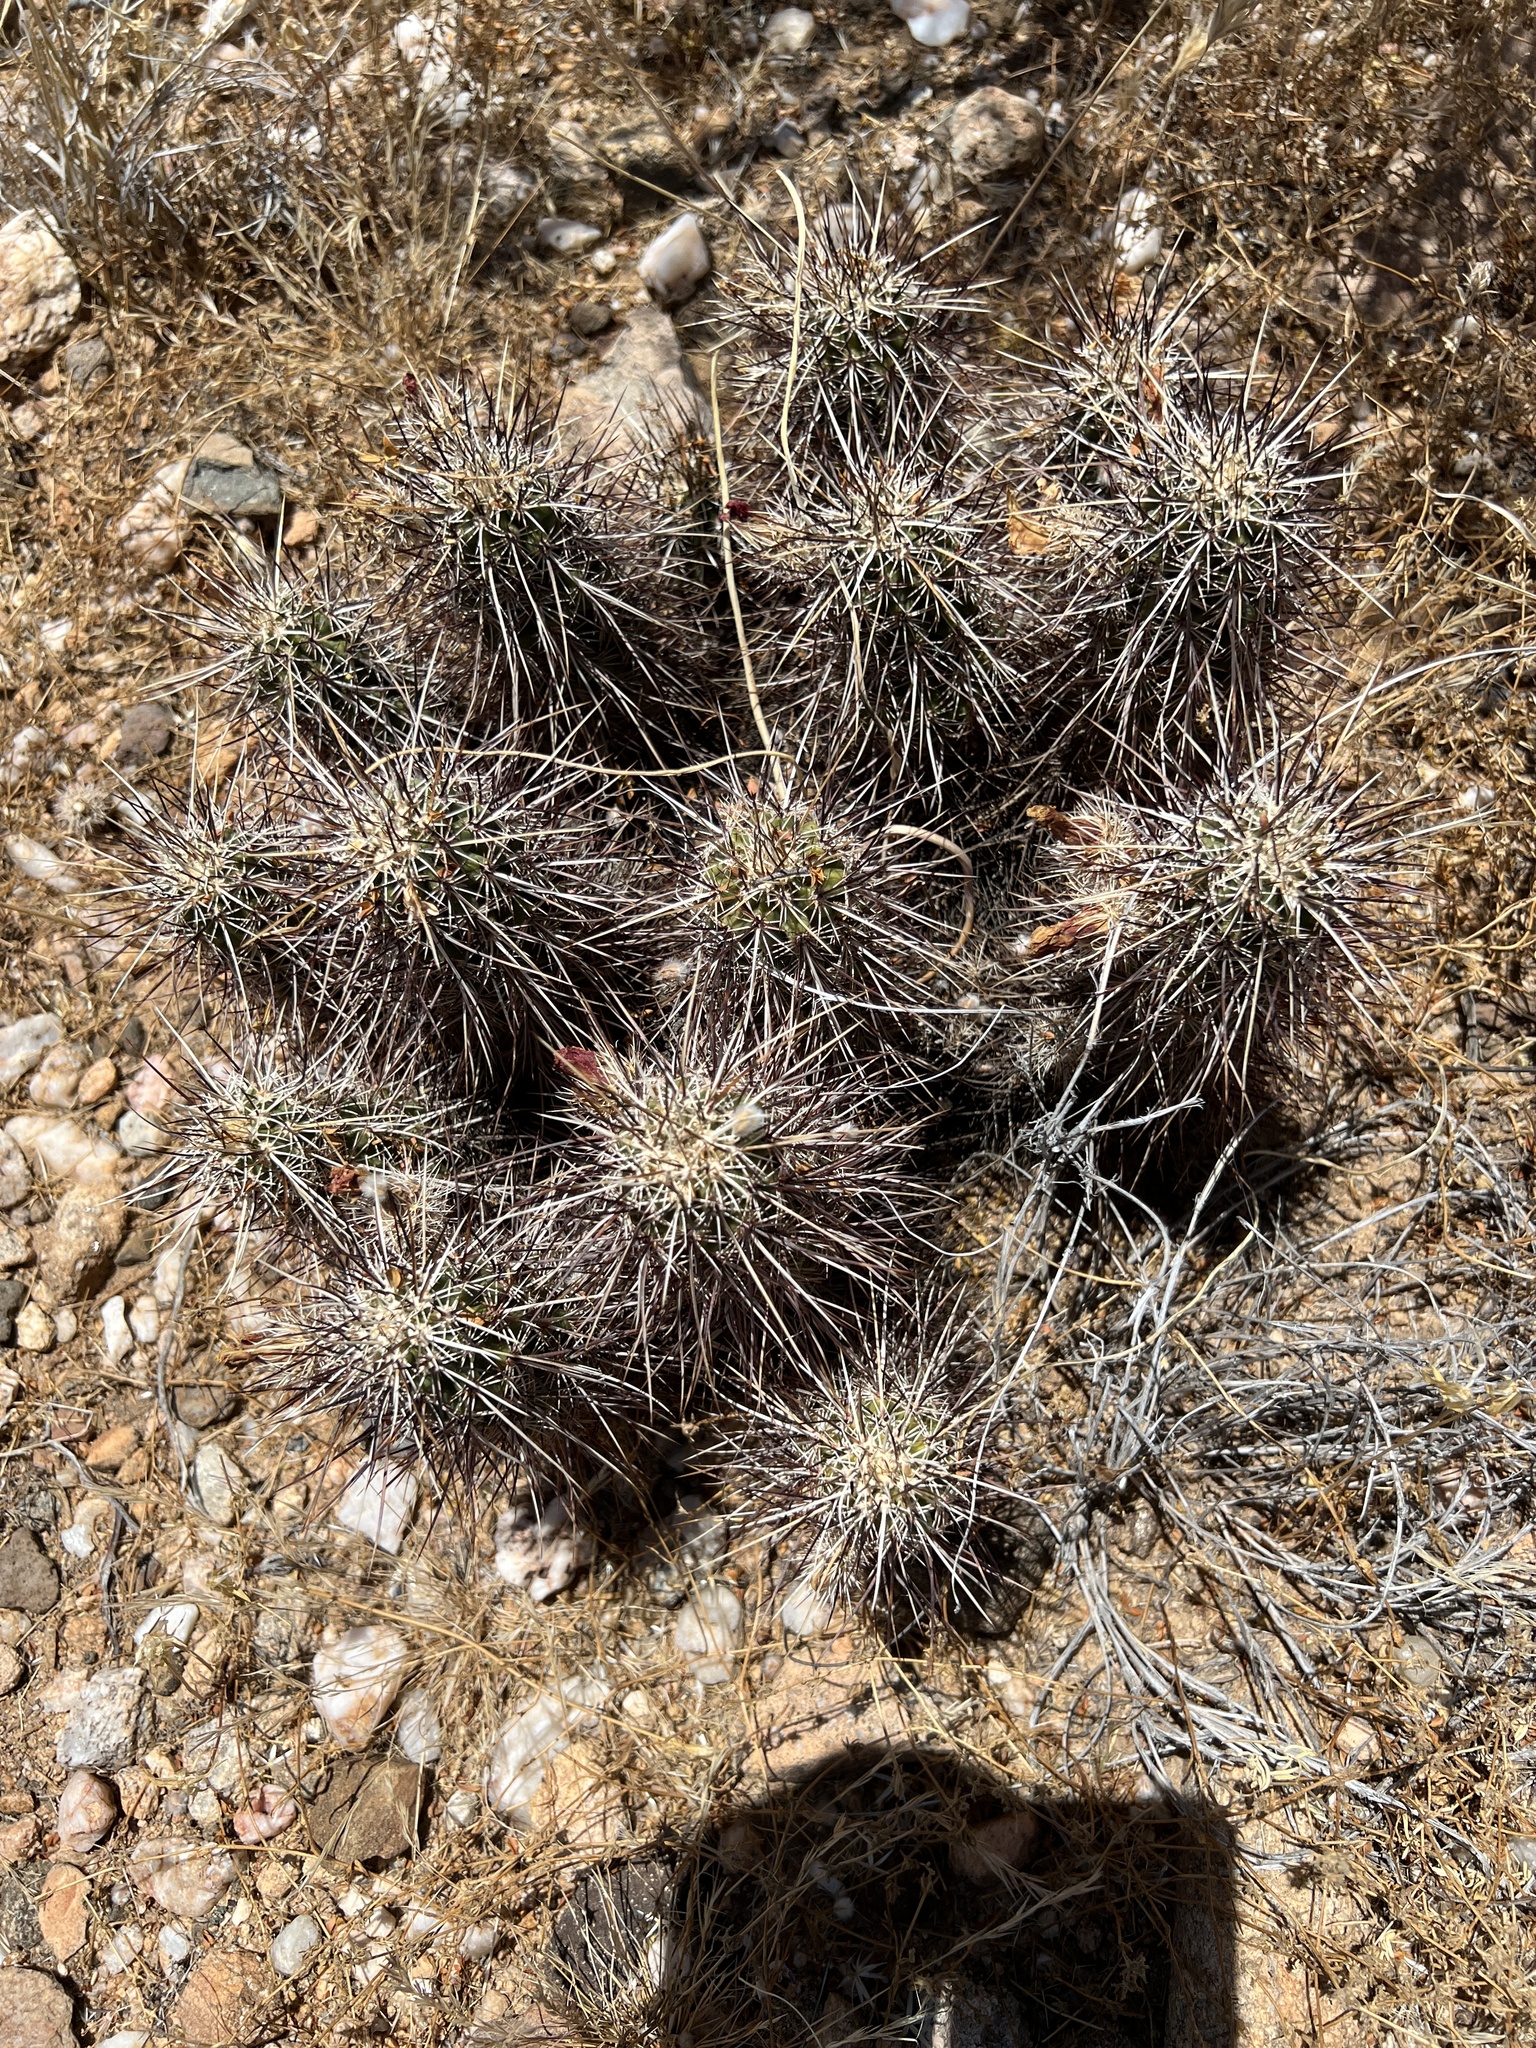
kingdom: Plantae
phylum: Tracheophyta
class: Magnoliopsida
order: Caryophyllales
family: Cactaceae
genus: Echinocereus
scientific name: Echinocereus engelmannii
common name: Engelmann's hedgehog cactus
